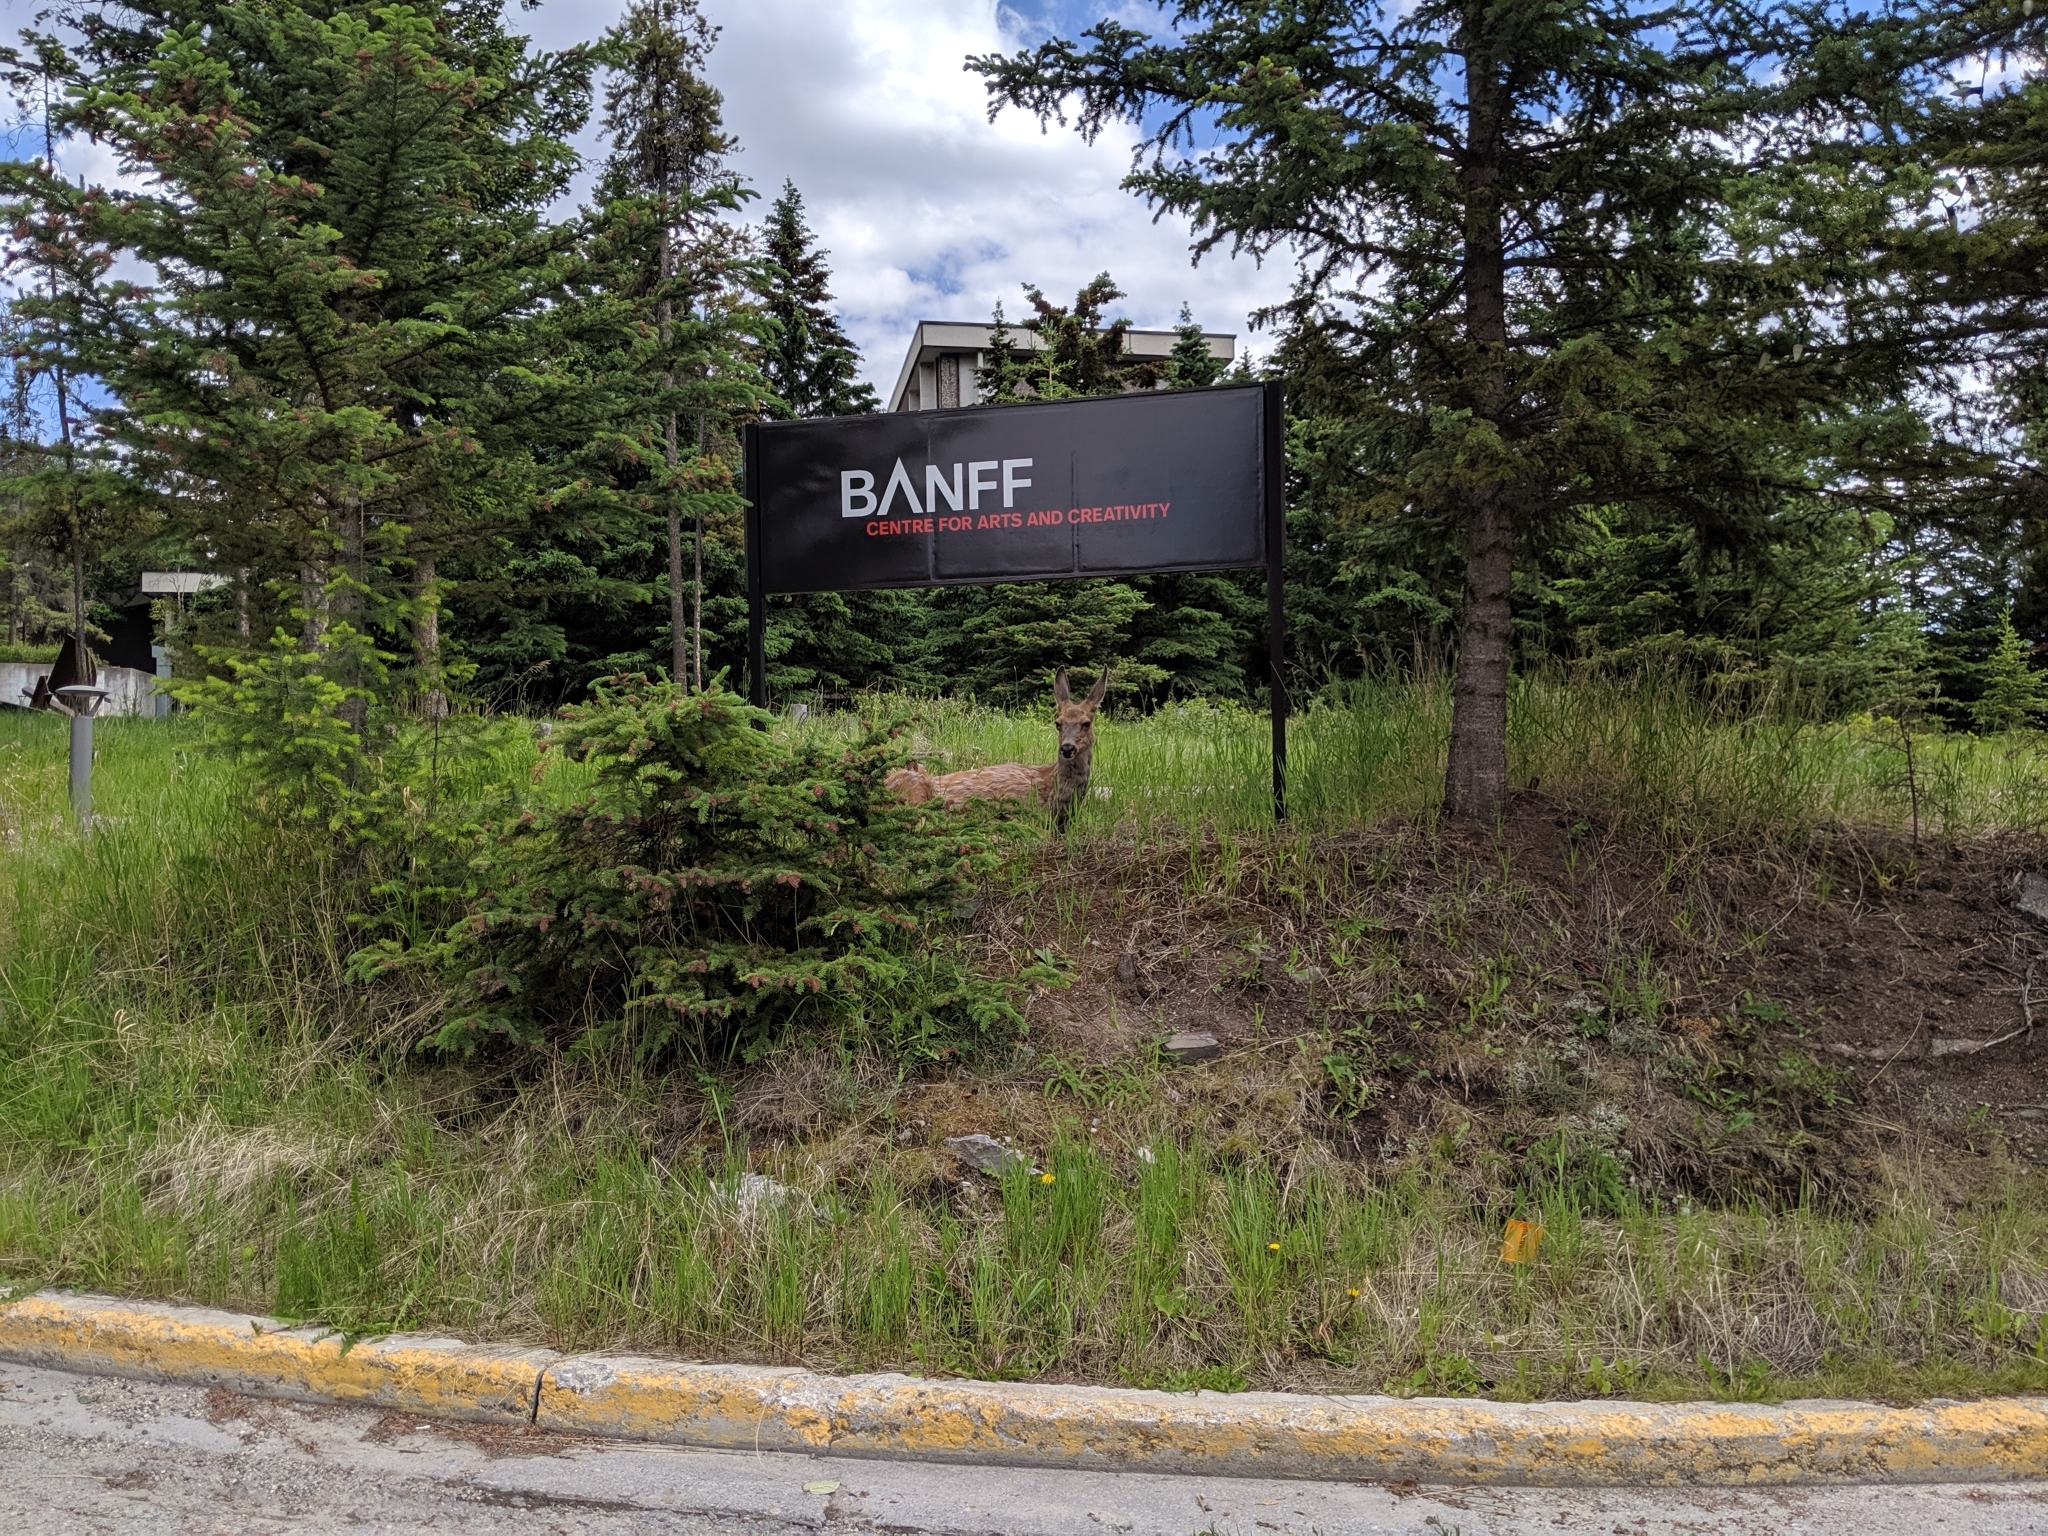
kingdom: Animalia
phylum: Chordata
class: Mammalia
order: Artiodactyla
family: Cervidae
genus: Odocoileus
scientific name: Odocoileus hemionus
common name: Mule deer
